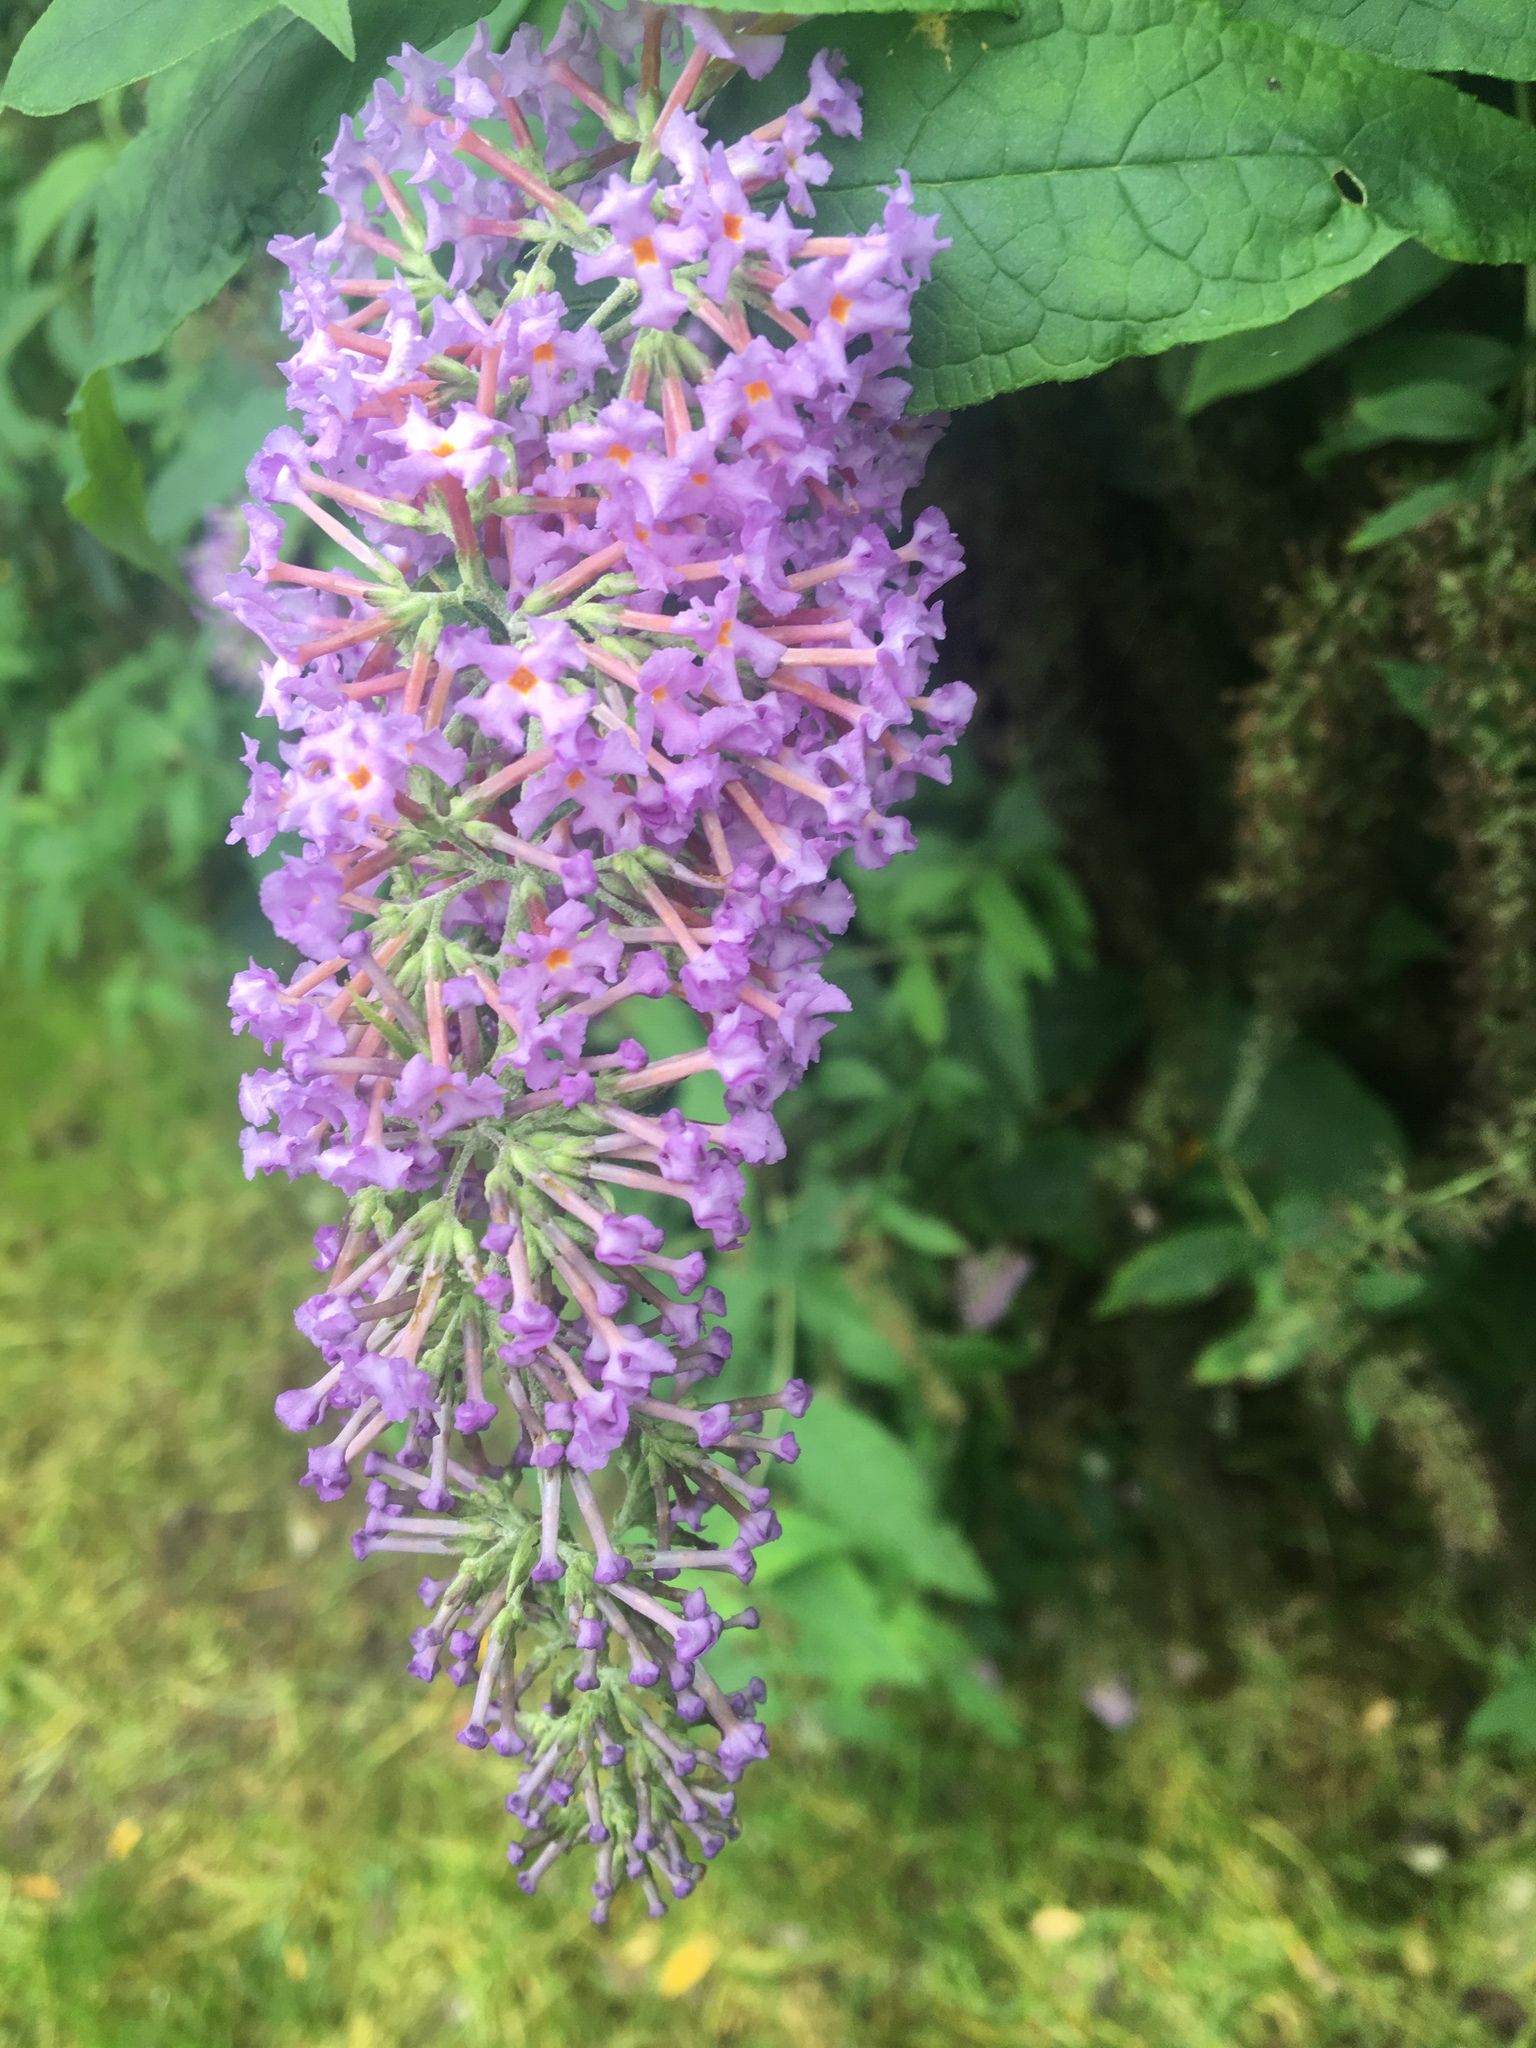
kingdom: Plantae
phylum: Tracheophyta
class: Magnoliopsida
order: Lamiales
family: Scrophulariaceae
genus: Buddleja
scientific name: Buddleja davidii
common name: Butterfly-bush
